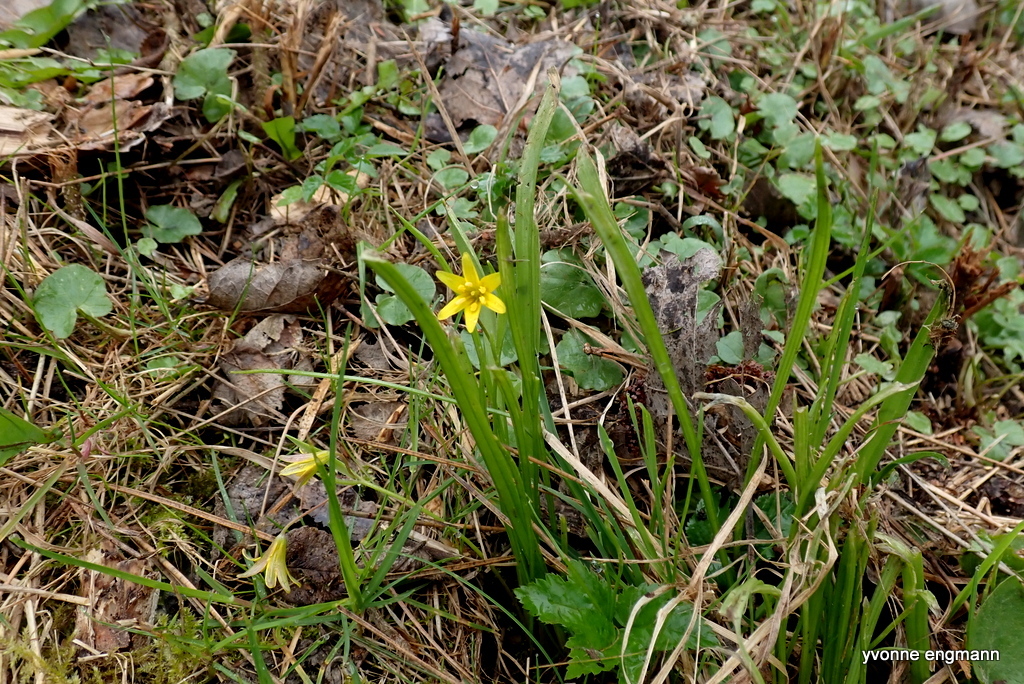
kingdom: Plantae
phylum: Tracheophyta
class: Liliopsida
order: Liliales
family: Liliaceae
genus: Gagea
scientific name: Gagea lutea
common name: Yellow star-of-bethlehem
